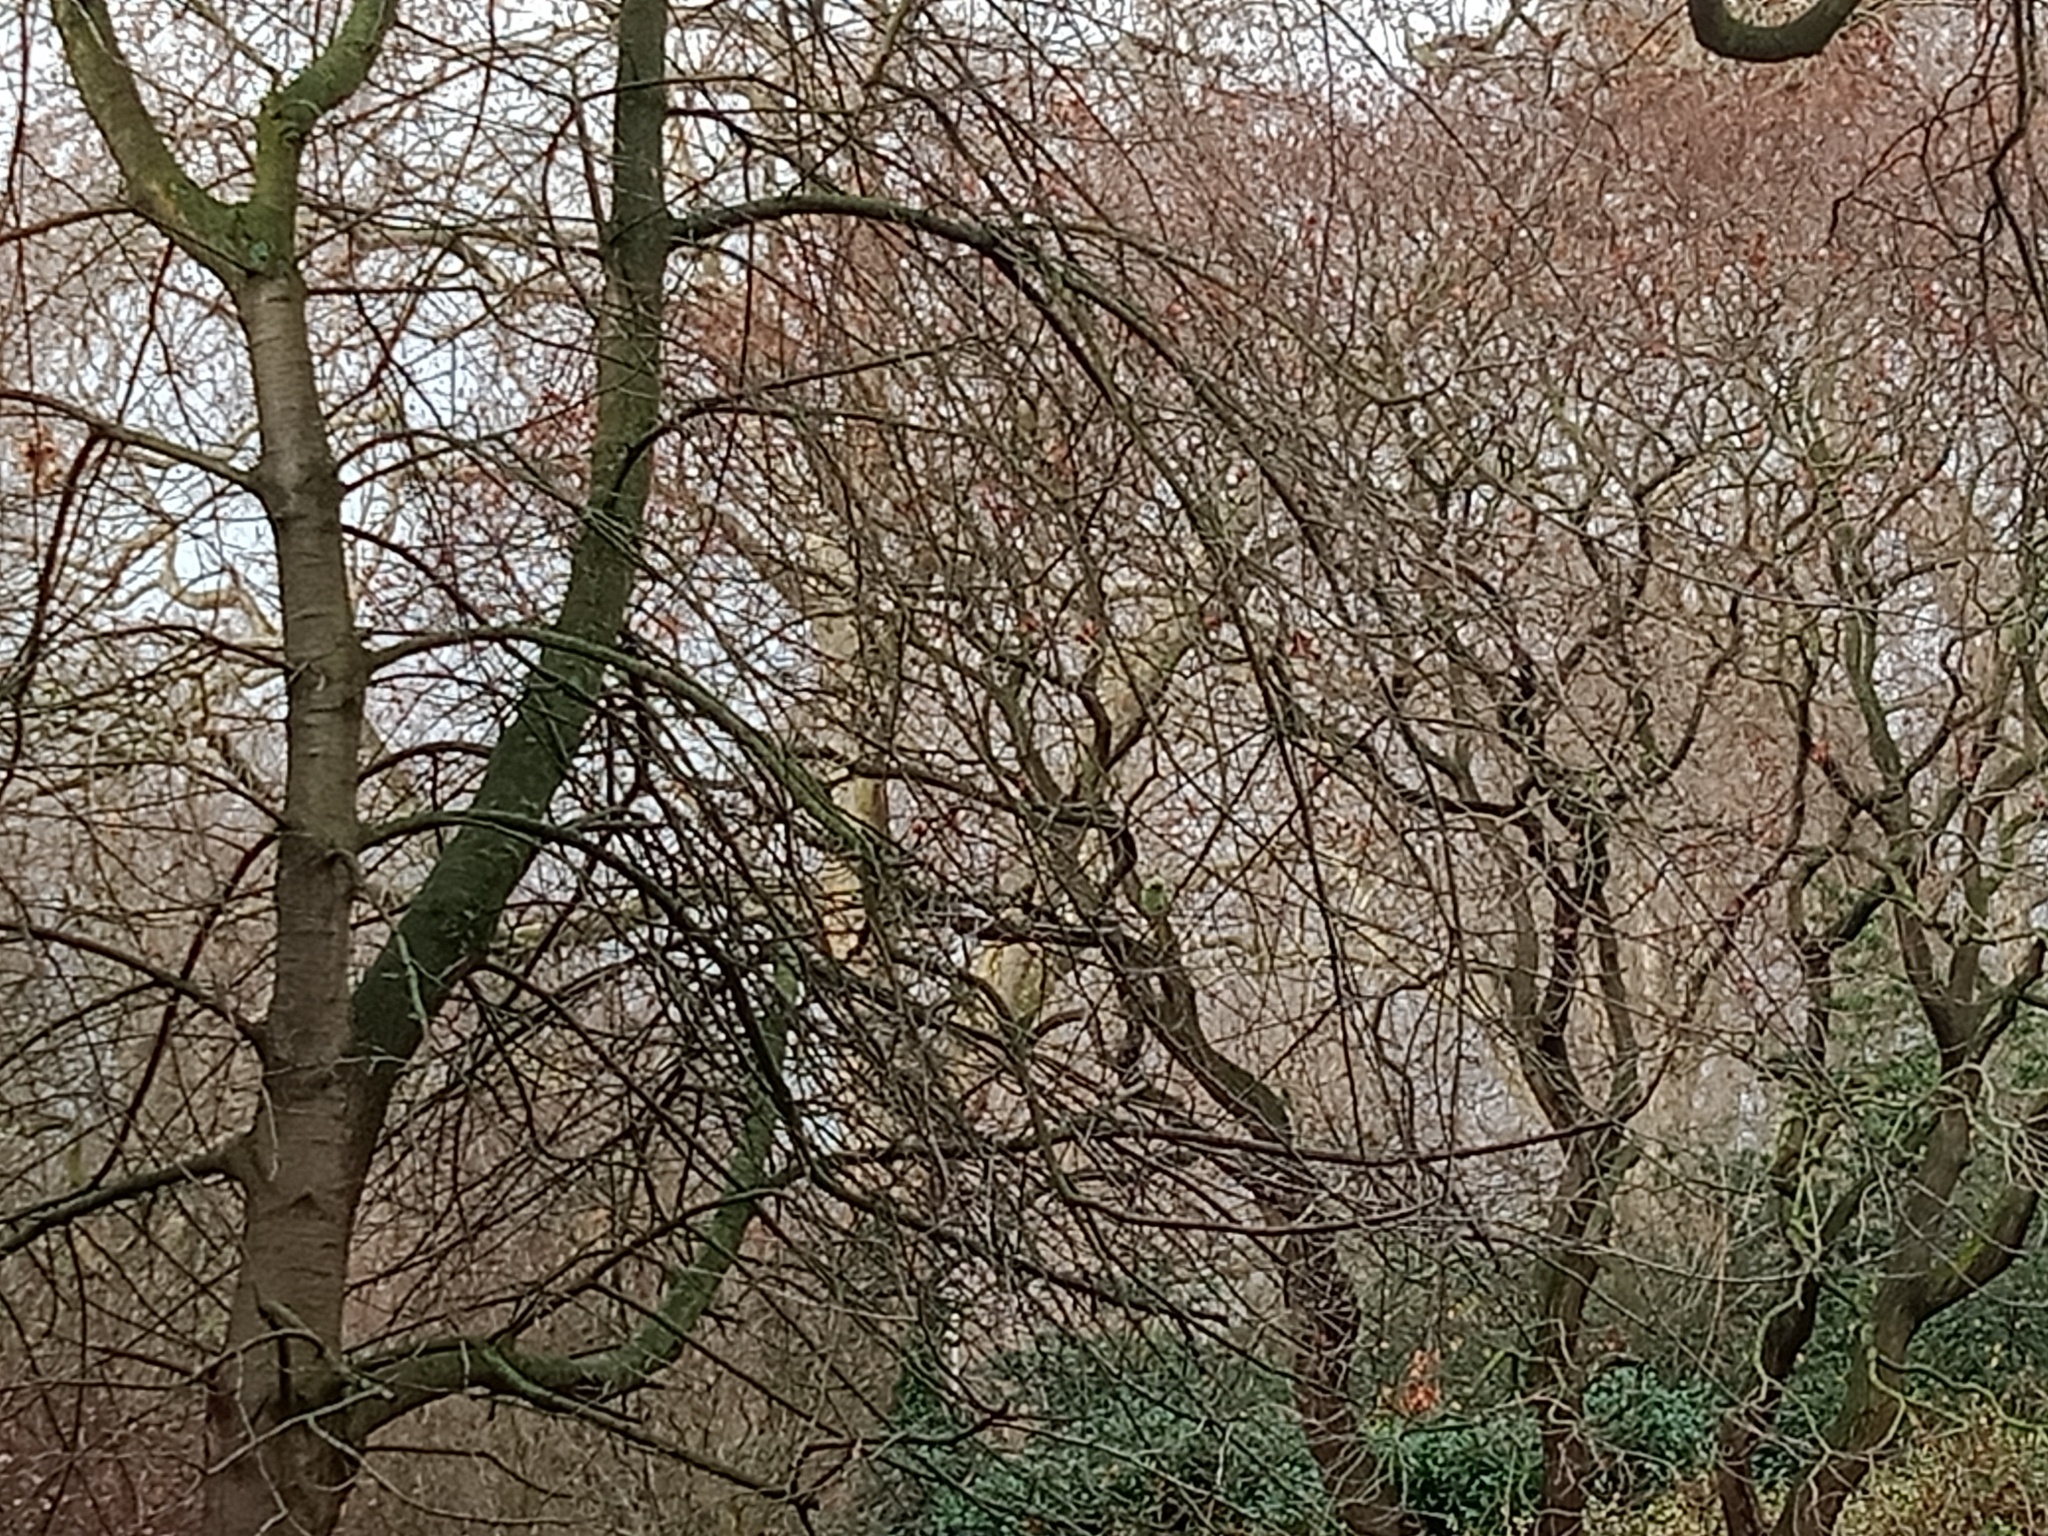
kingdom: Animalia
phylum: Chordata
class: Aves
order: Psittaciformes
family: Psittacidae
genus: Psittacula
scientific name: Psittacula krameri
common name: Rose-ringed parakeet
